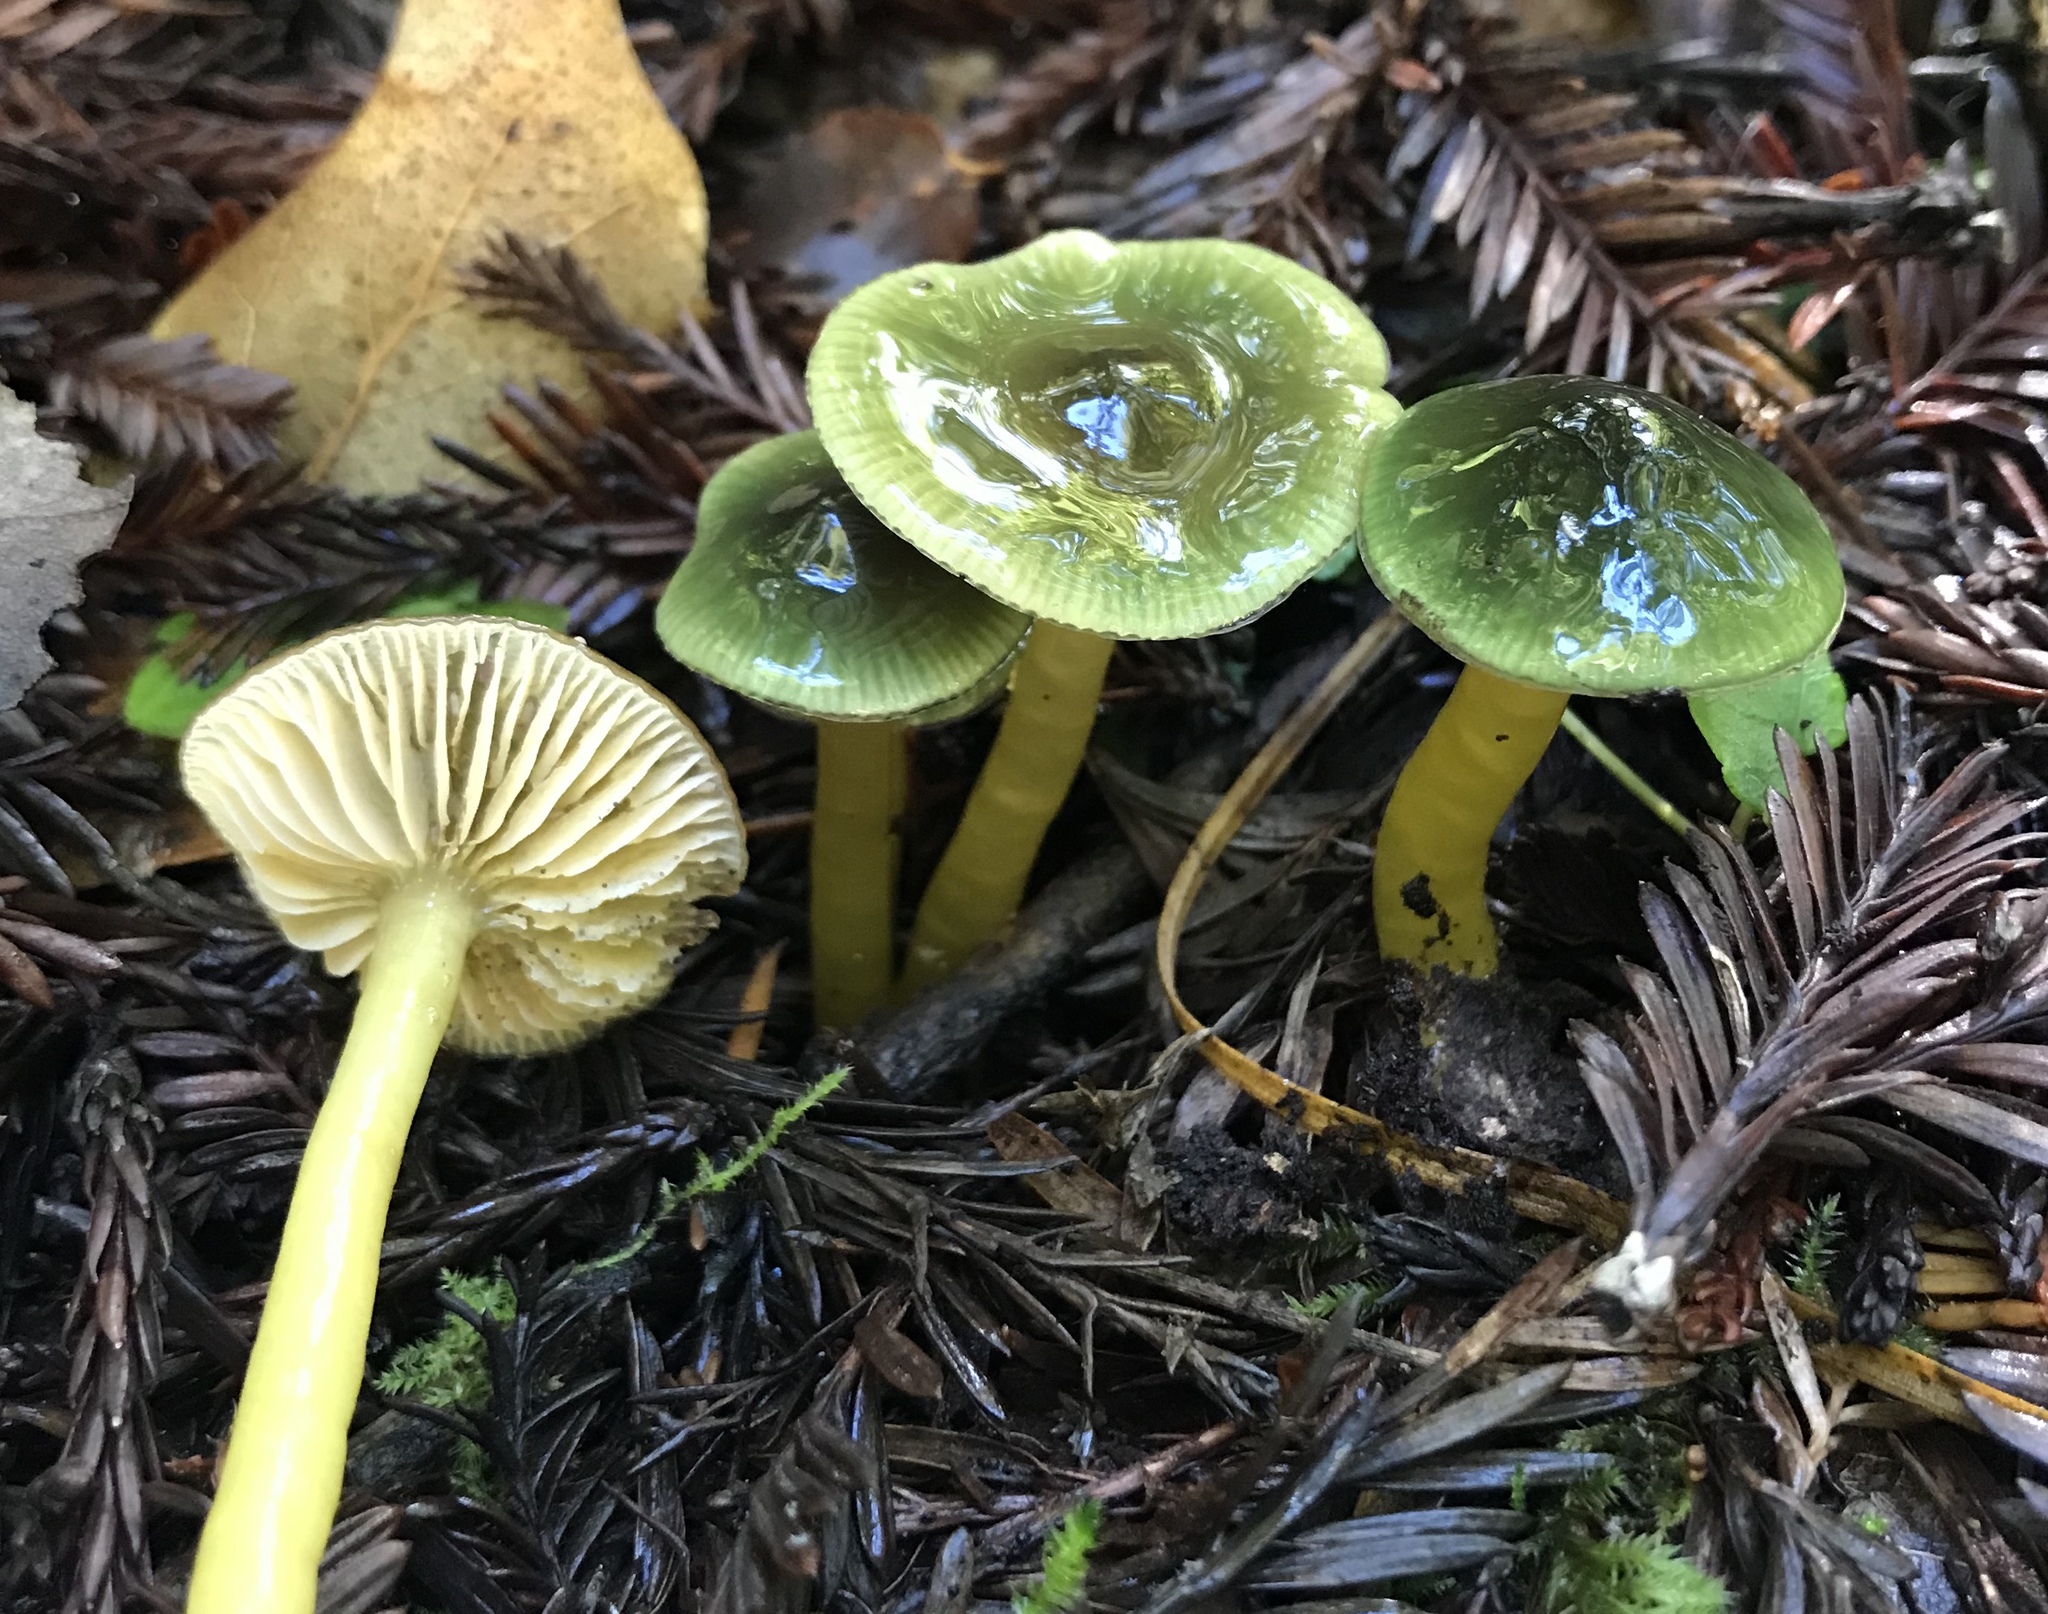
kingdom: Fungi
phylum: Basidiomycota
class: Agaricomycetes
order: Agaricales
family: Hygrophoraceae
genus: Gliophorus
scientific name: Gliophorus psittacinus
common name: Parrot wax-cap
